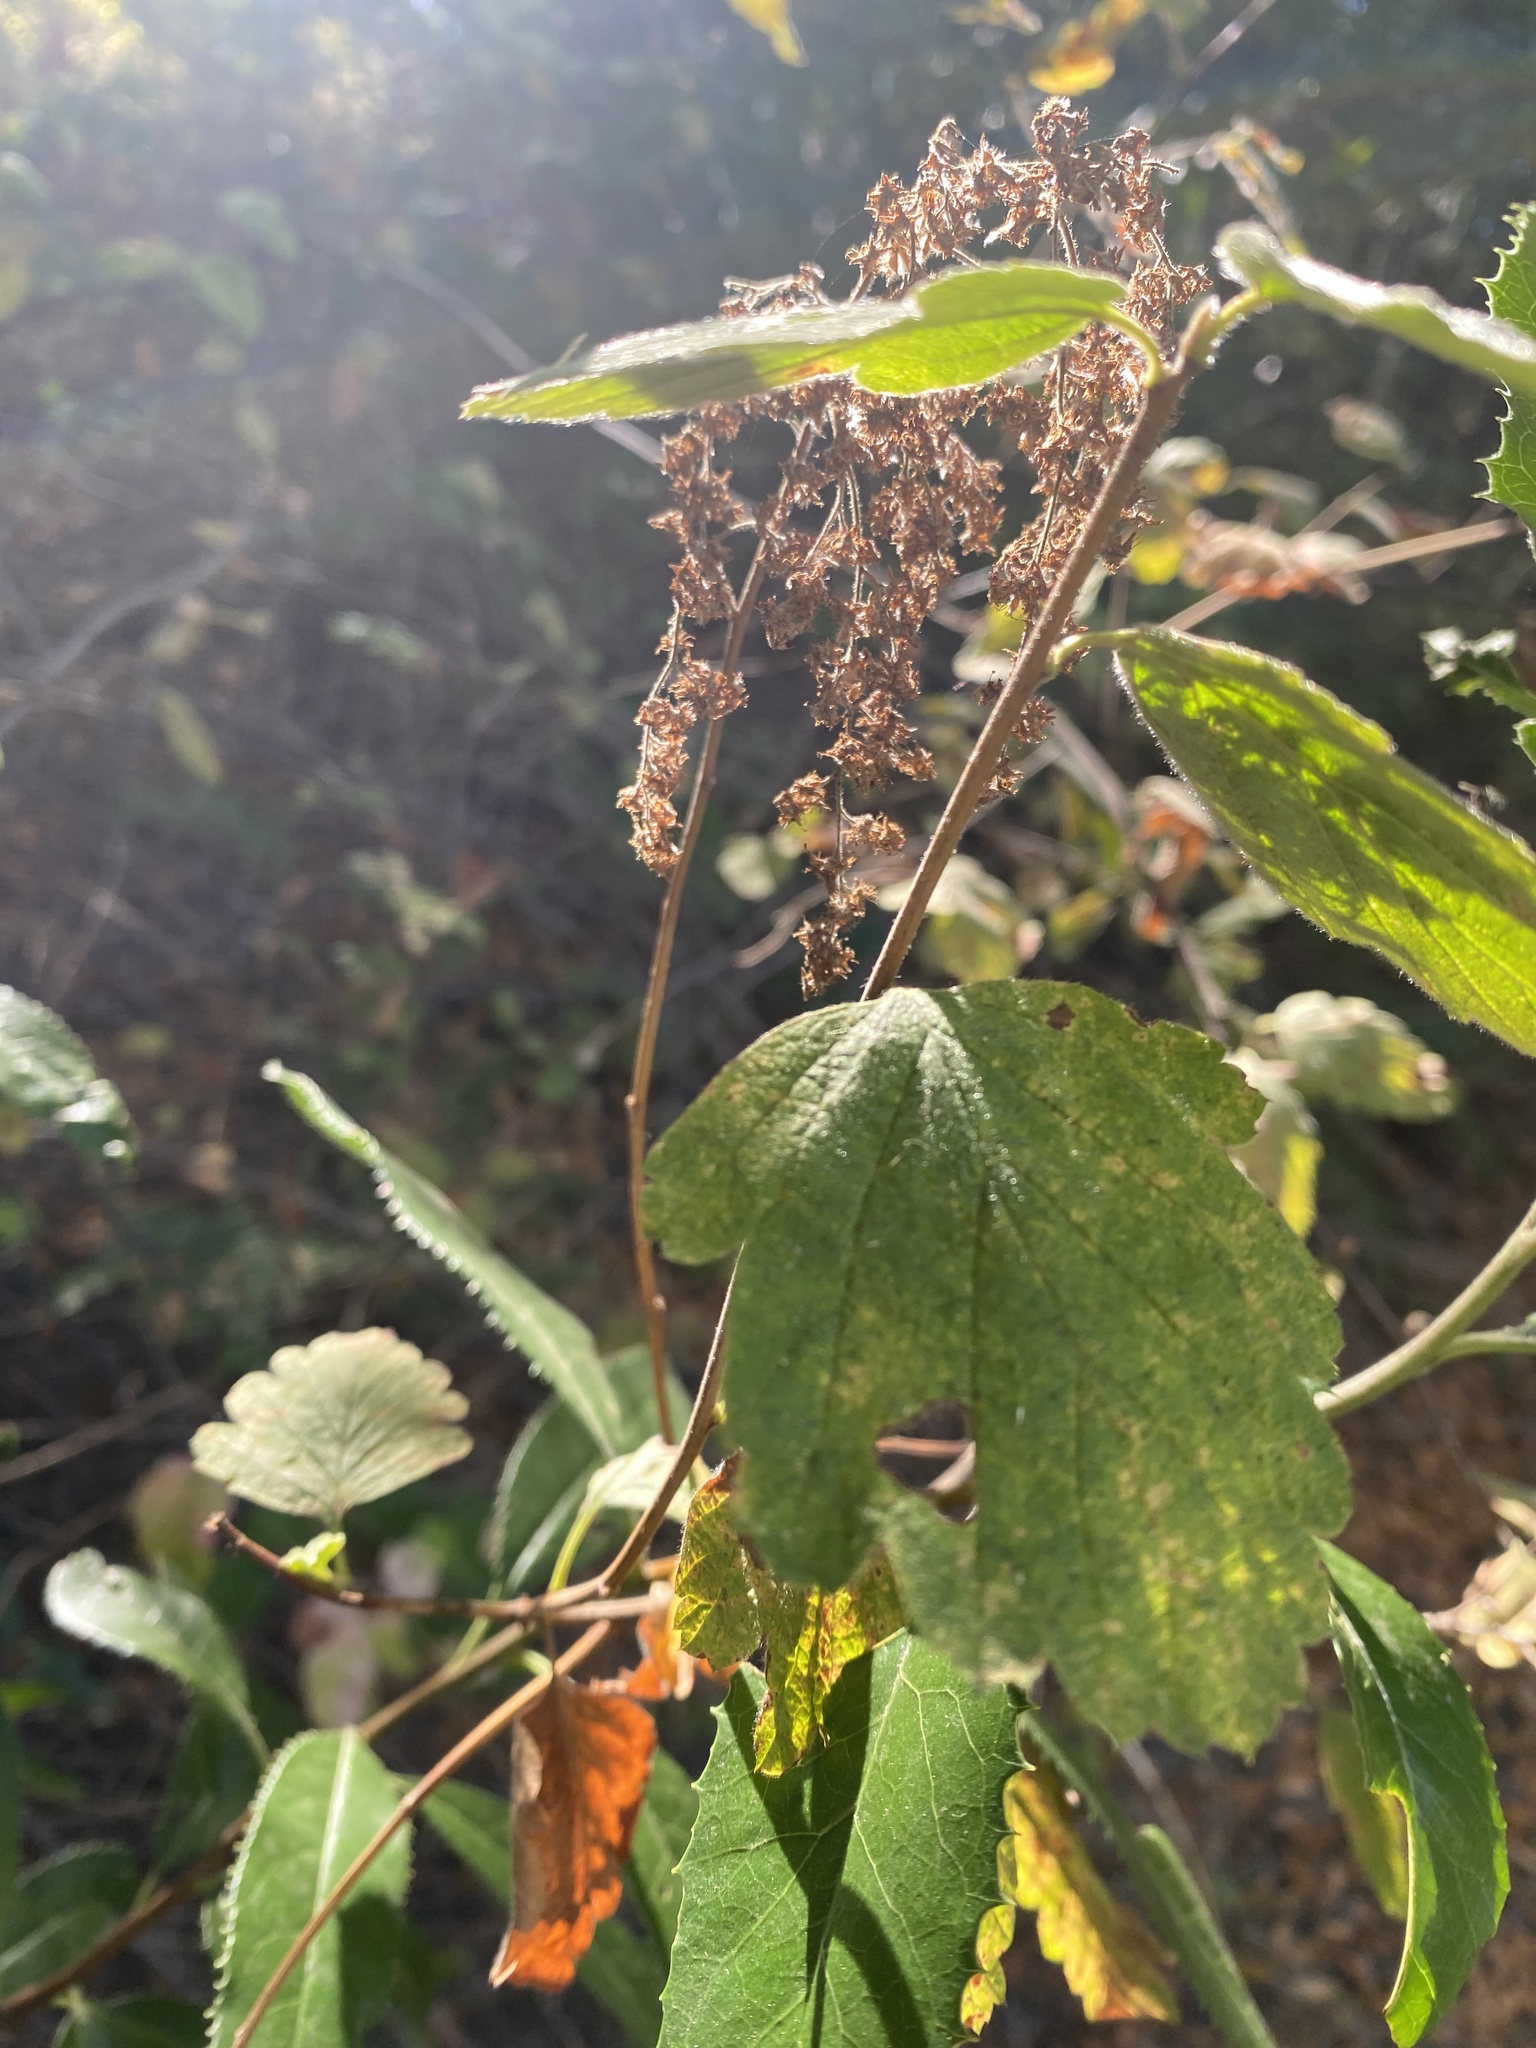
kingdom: Plantae
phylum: Tracheophyta
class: Magnoliopsida
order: Rosales
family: Rosaceae
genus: Holodiscus
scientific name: Holodiscus discolor
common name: Oceanspray
